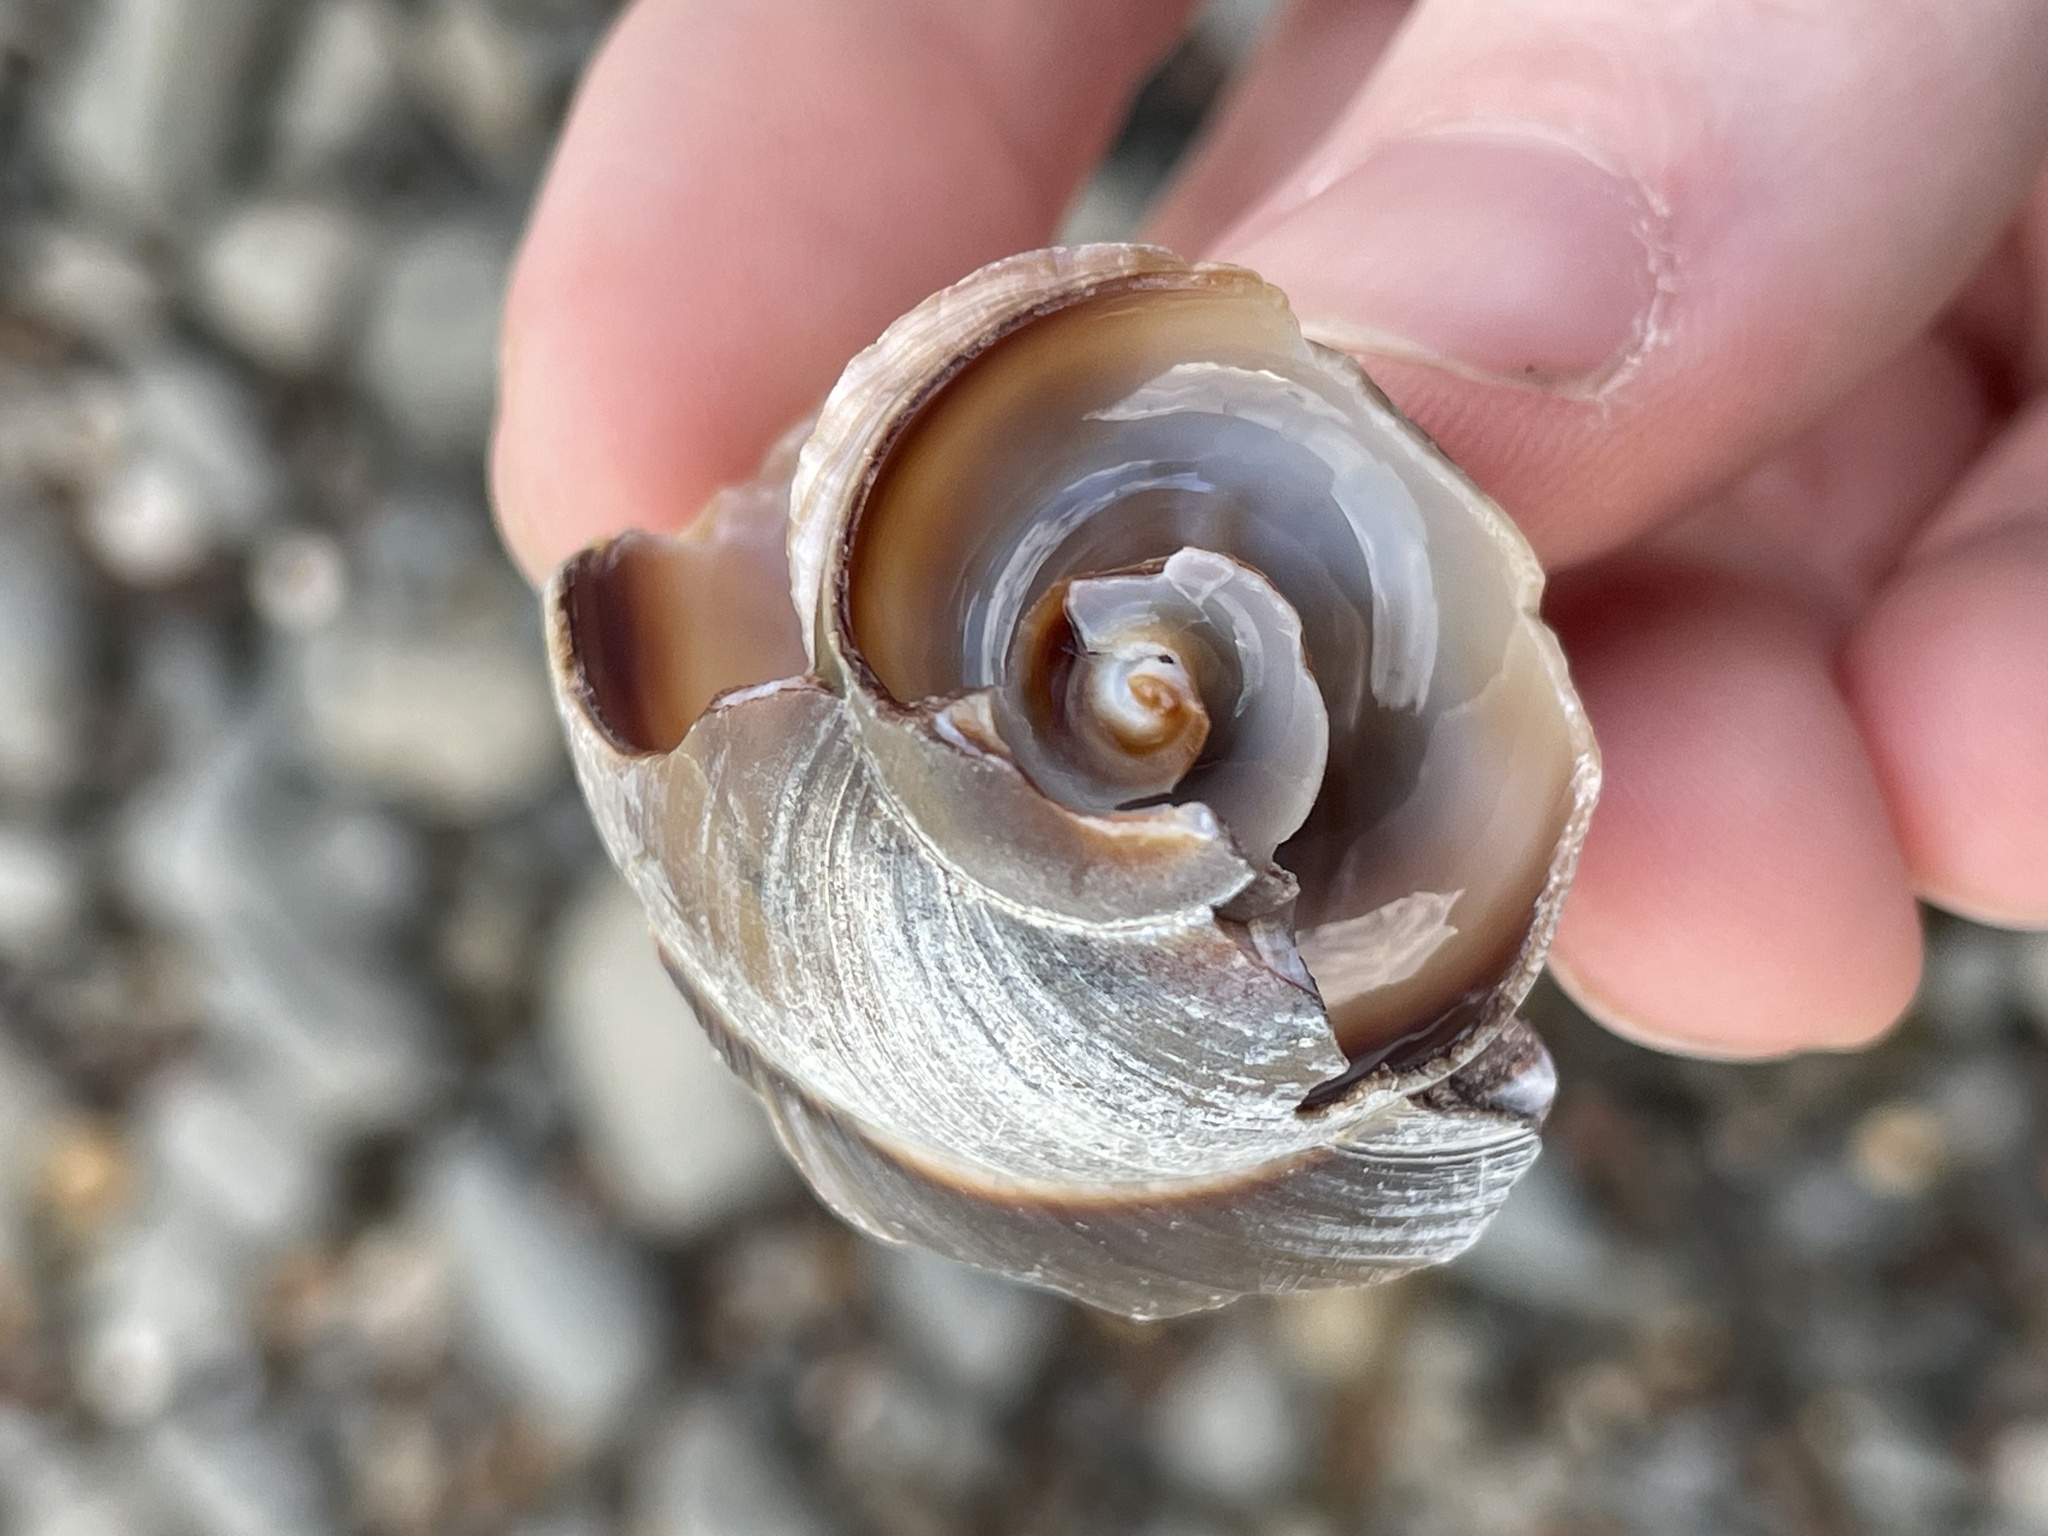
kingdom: Animalia
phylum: Mollusca
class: Gastropoda
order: Littorinimorpha
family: Naticidae
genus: Neverita
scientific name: Neverita duplicata
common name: Lobed moonsnail
